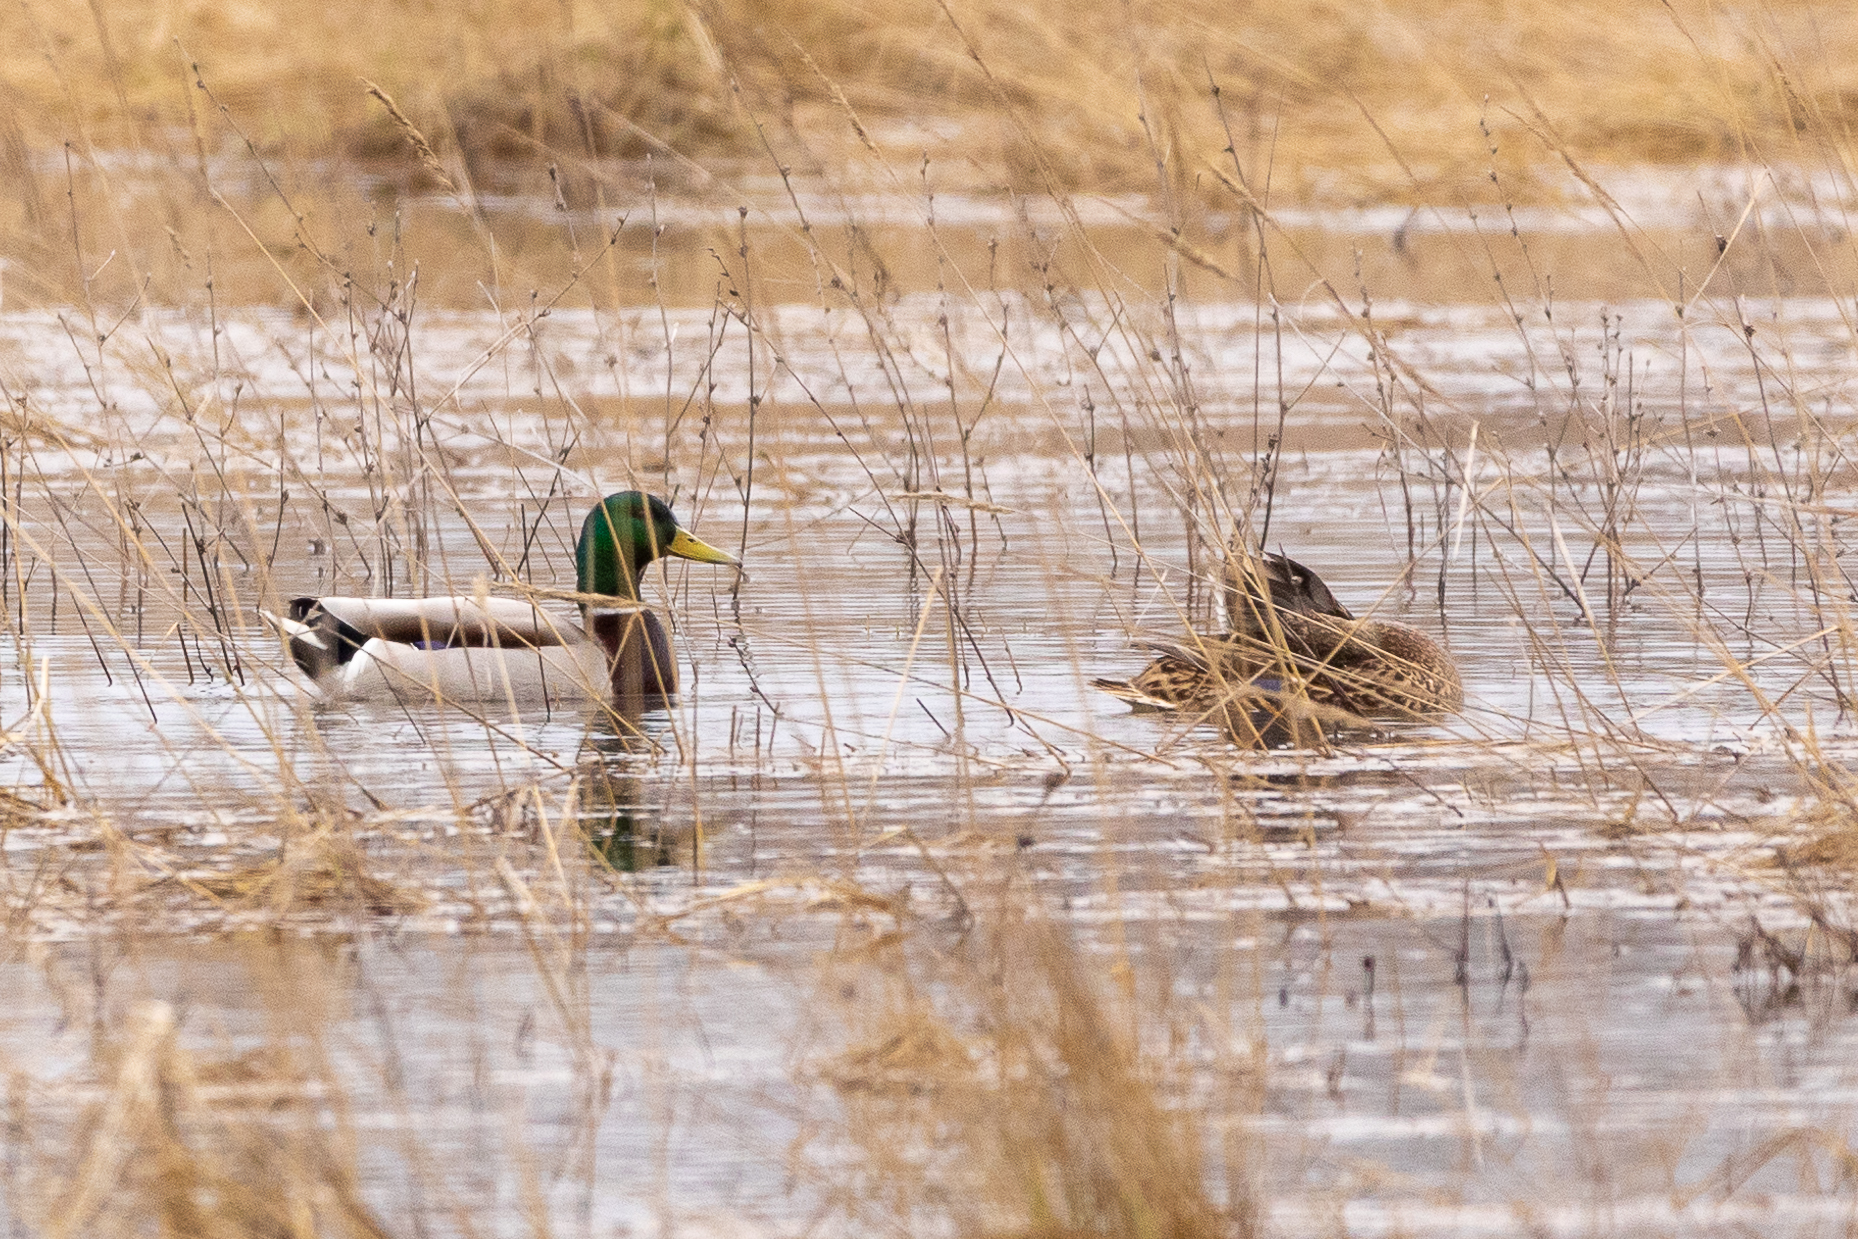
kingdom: Animalia
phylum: Chordata
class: Aves
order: Anseriformes
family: Anatidae
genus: Anas
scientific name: Anas platyrhynchos
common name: Mallard
